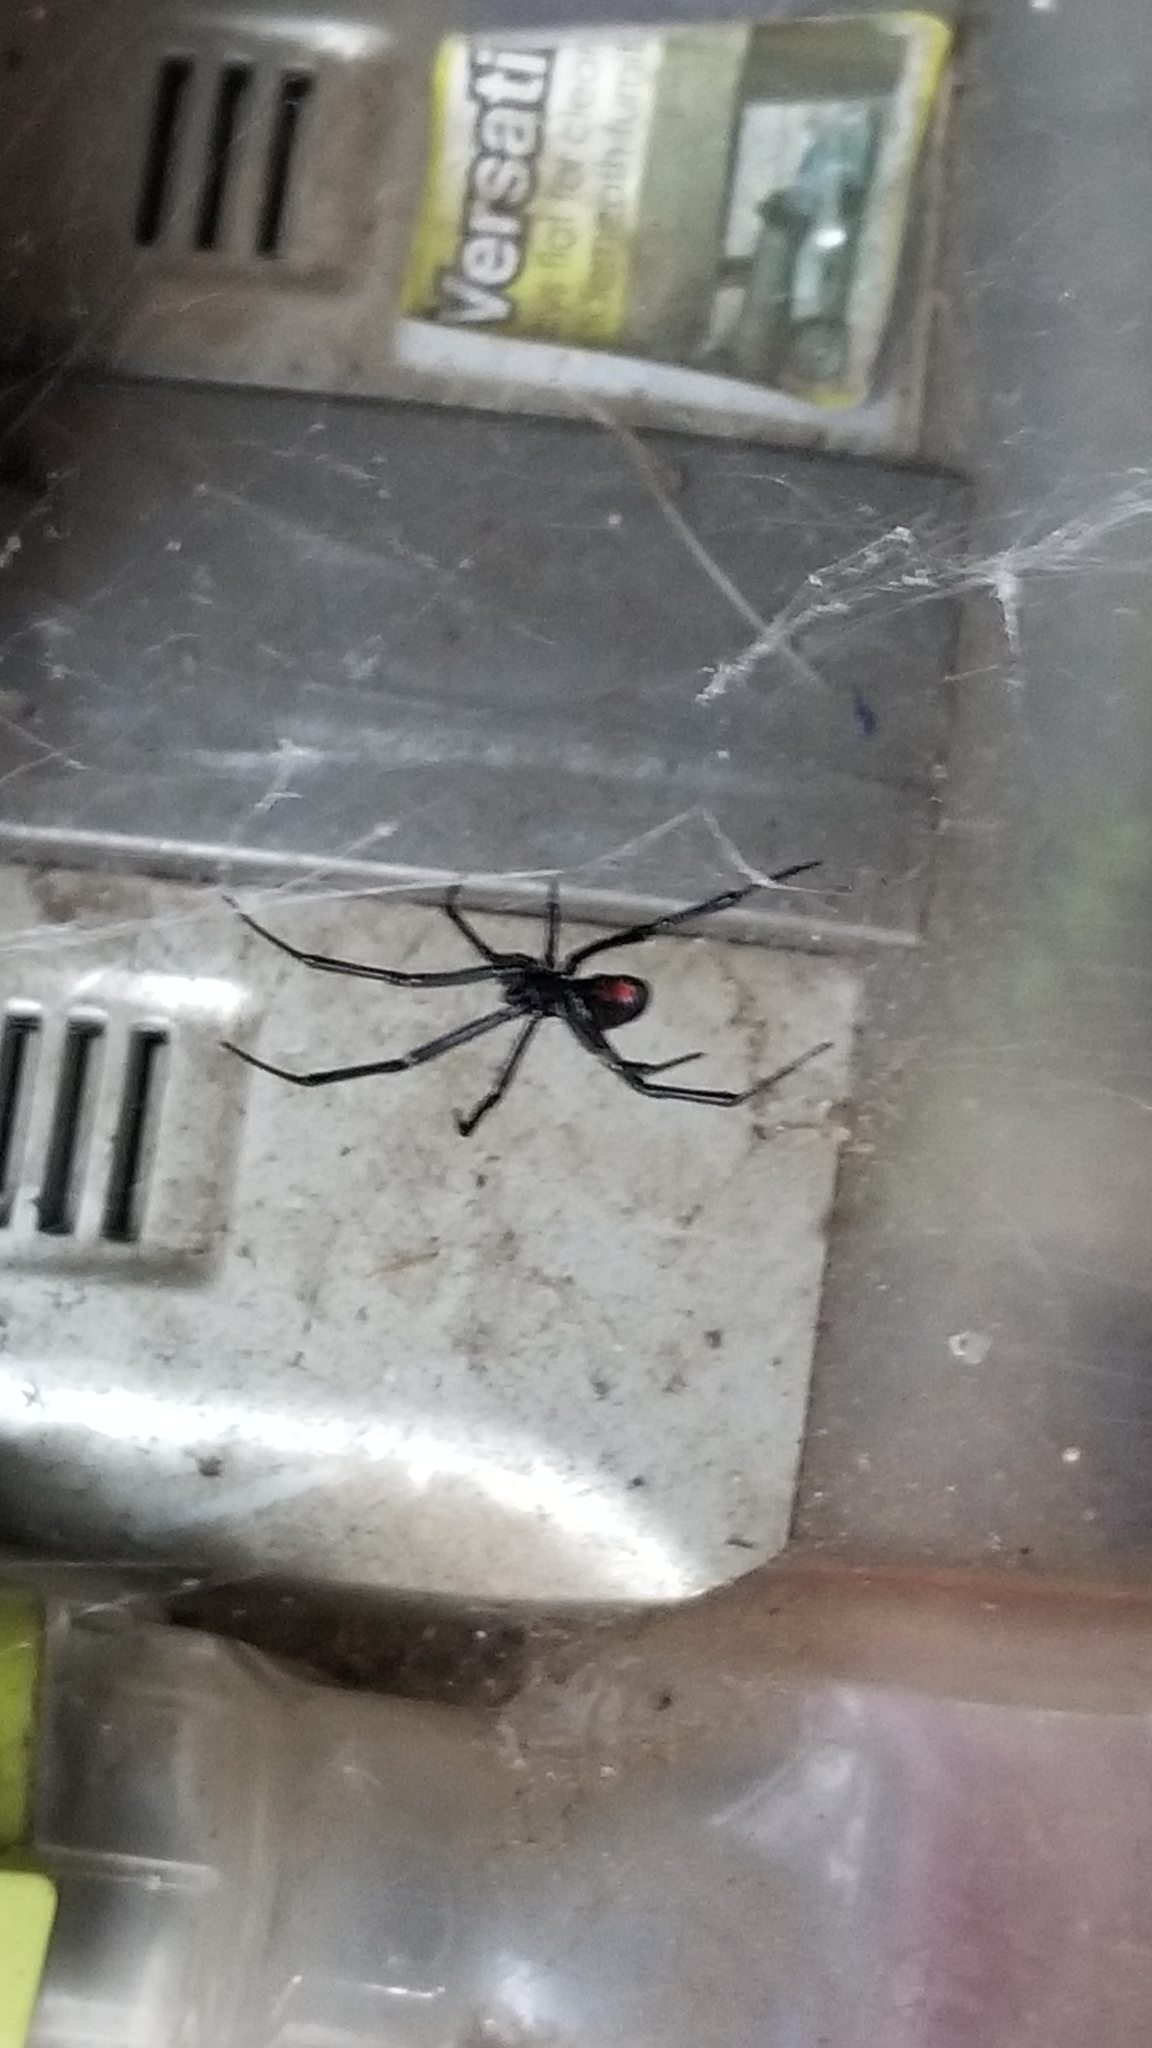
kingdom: Animalia
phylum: Arthropoda
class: Arachnida
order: Araneae
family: Theridiidae
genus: Latrodectus
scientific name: Latrodectus hesperus
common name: Western black widow
